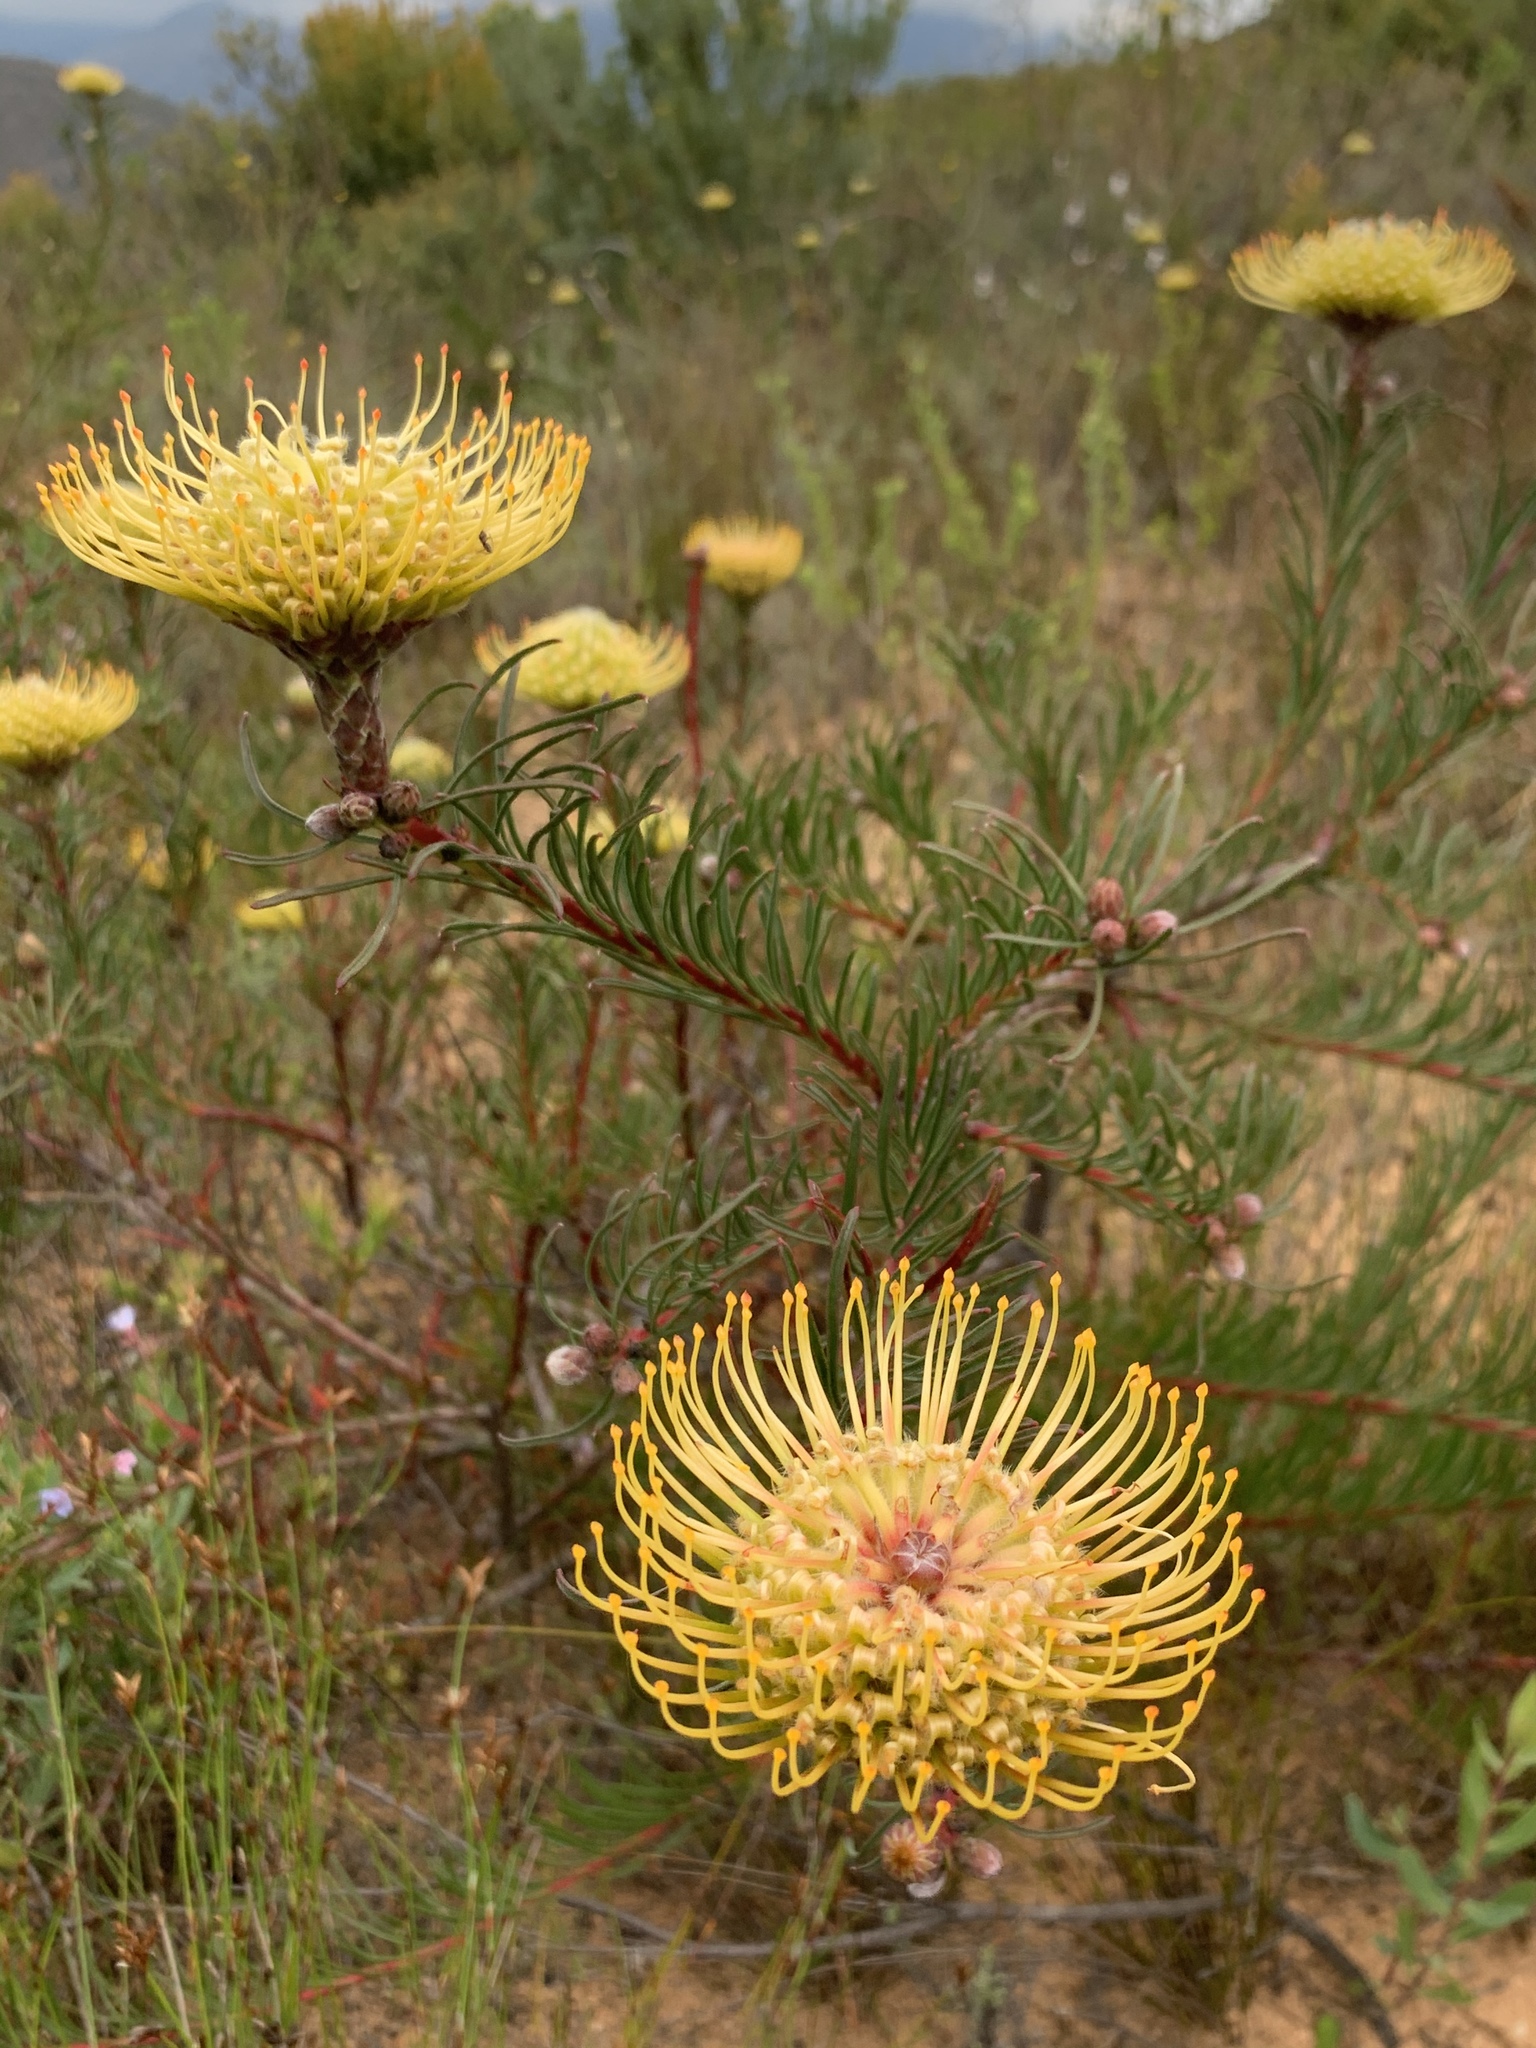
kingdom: Plantae
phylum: Tracheophyta
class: Magnoliopsida
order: Proteales
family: Proteaceae
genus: Leucospermum
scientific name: Leucospermum lineare
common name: Needle-leaf pincushion
